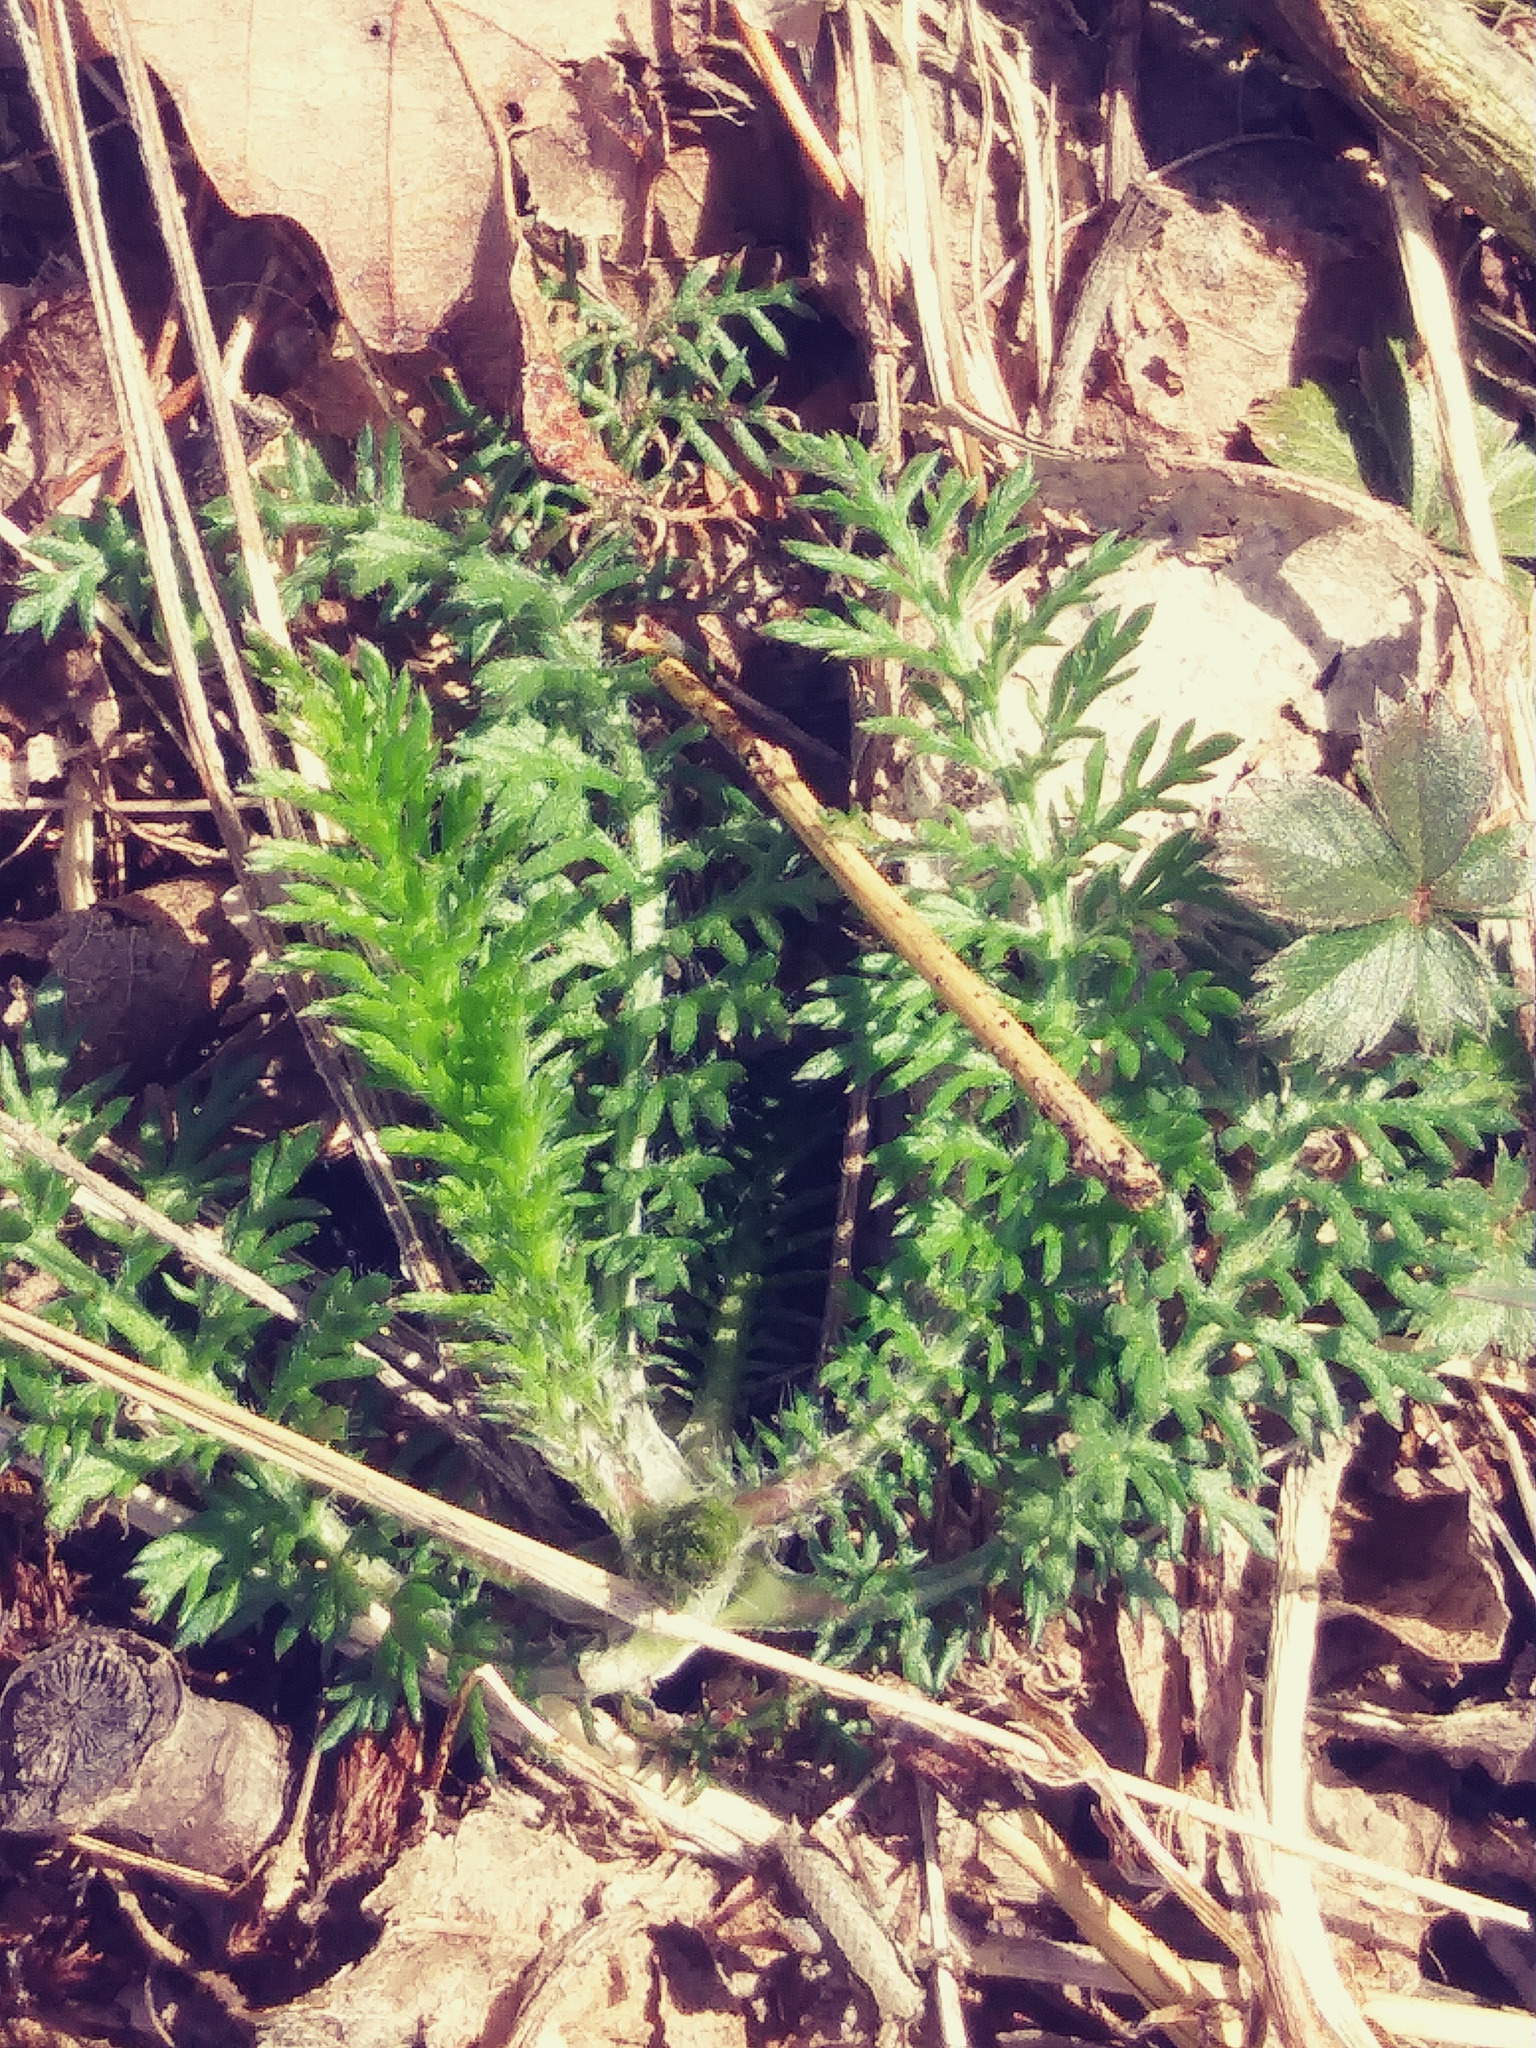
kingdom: Plantae
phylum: Tracheophyta
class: Magnoliopsida
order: Asterales
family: Asteraceae
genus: Achillea
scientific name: Achillea millefolium
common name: Yarrow
